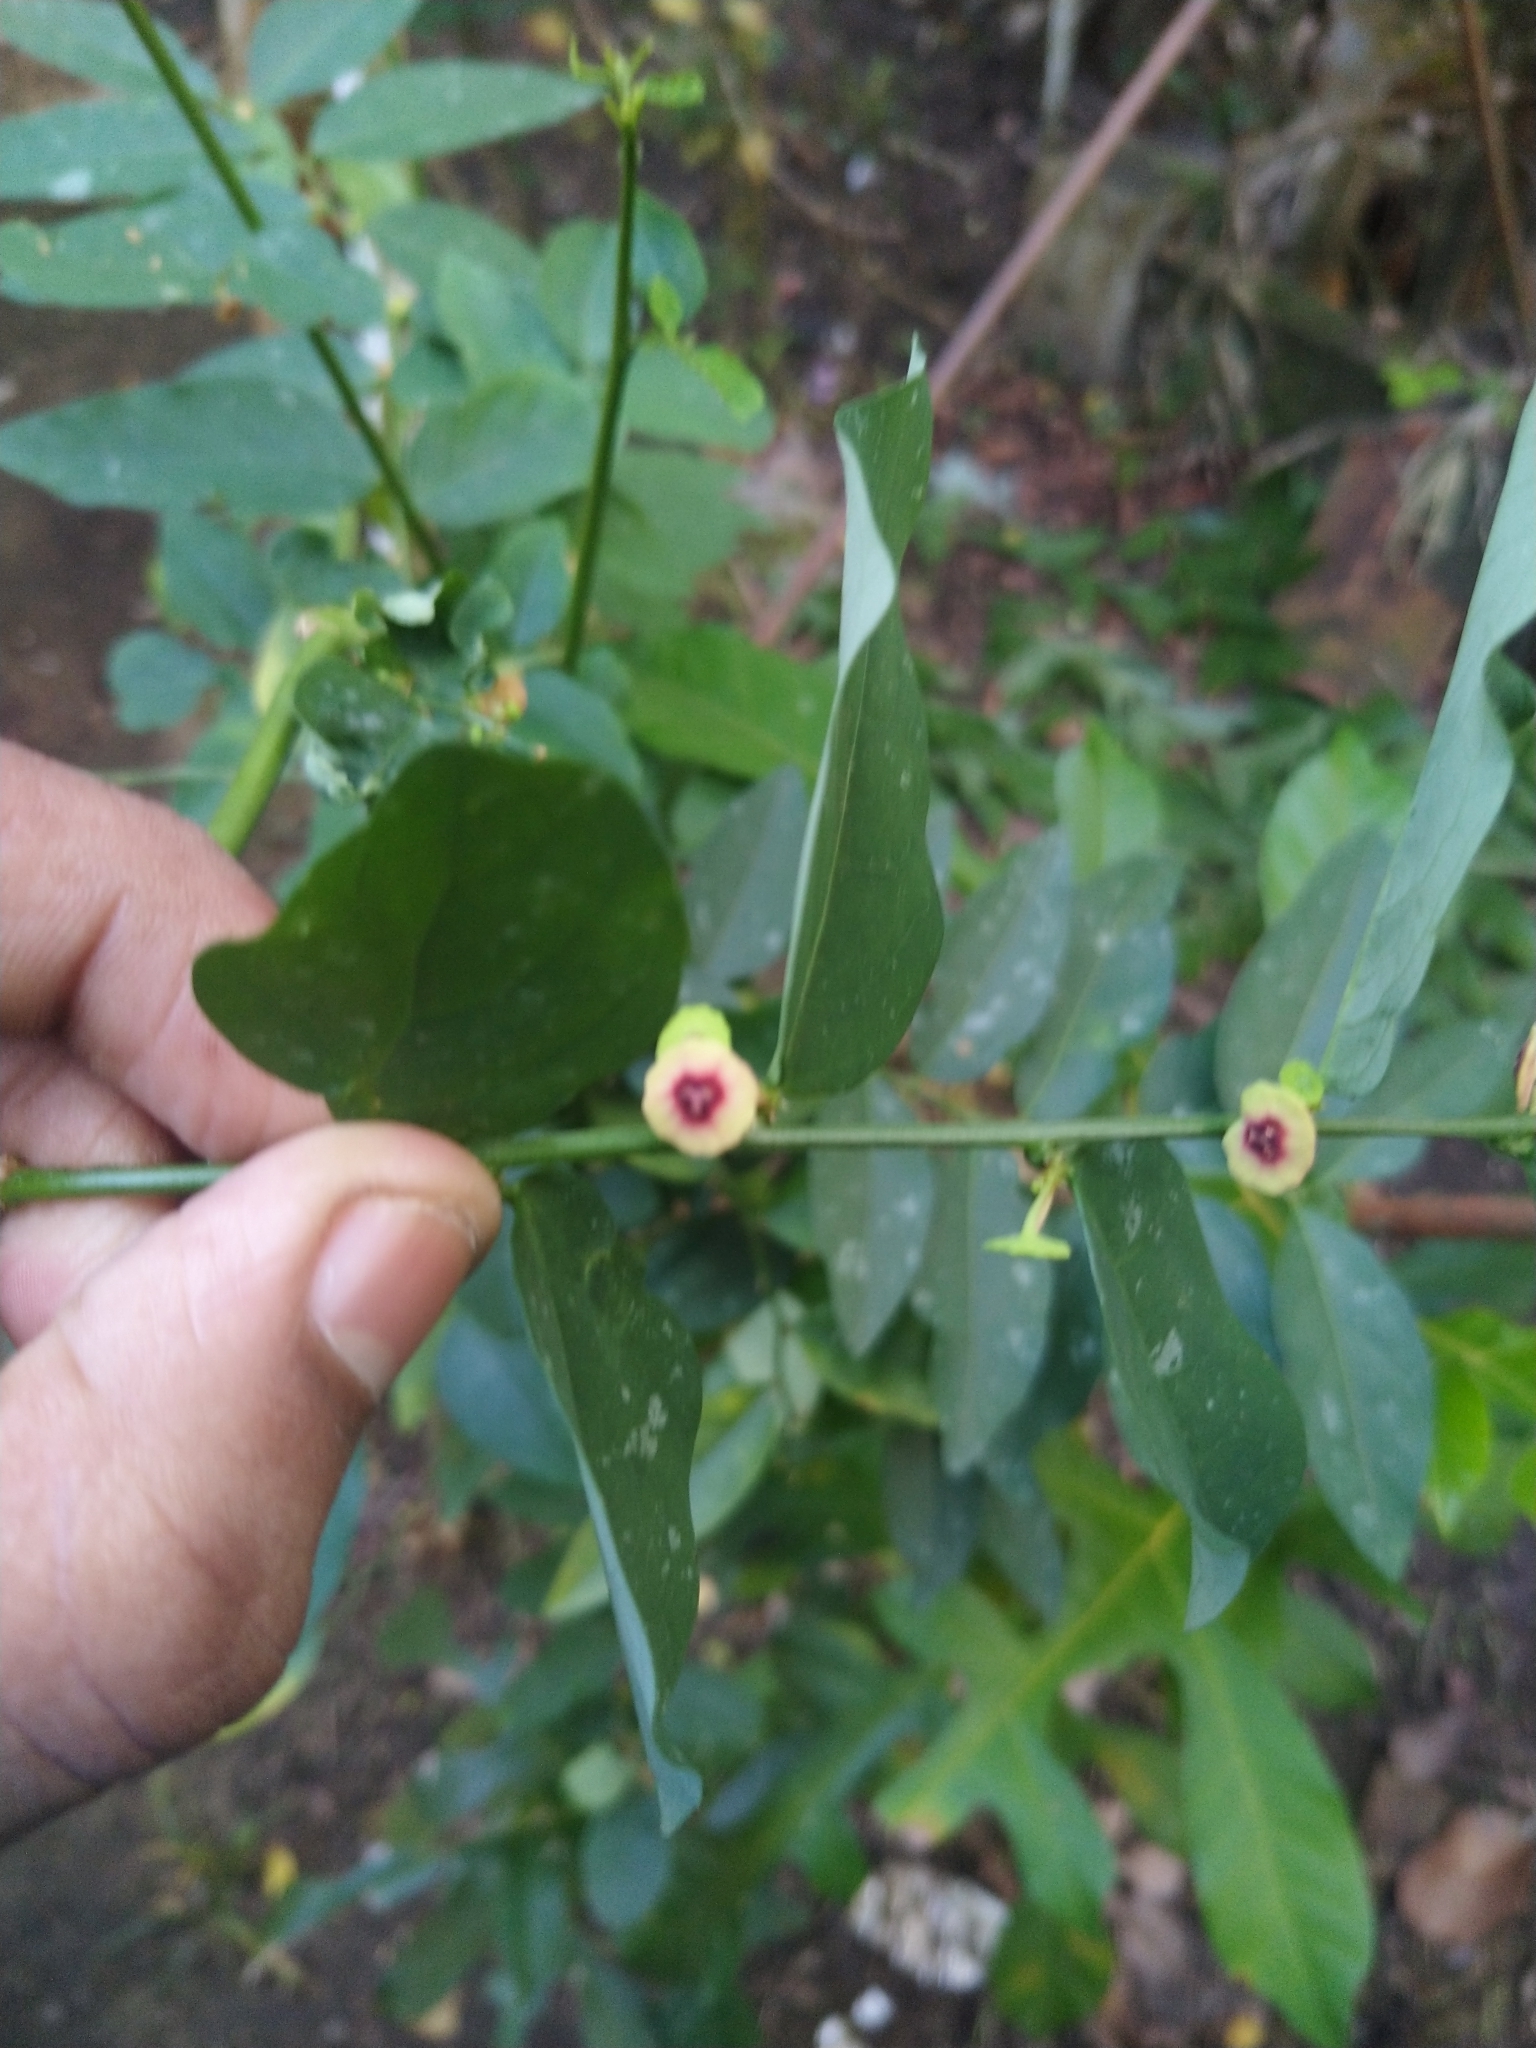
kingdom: Plantae
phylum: Tracheophyta
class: Magnoliopsida
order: Malpighiales
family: Phyllanthaceae
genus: Breynia
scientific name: Breynia androgyna
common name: Star gooseberry
